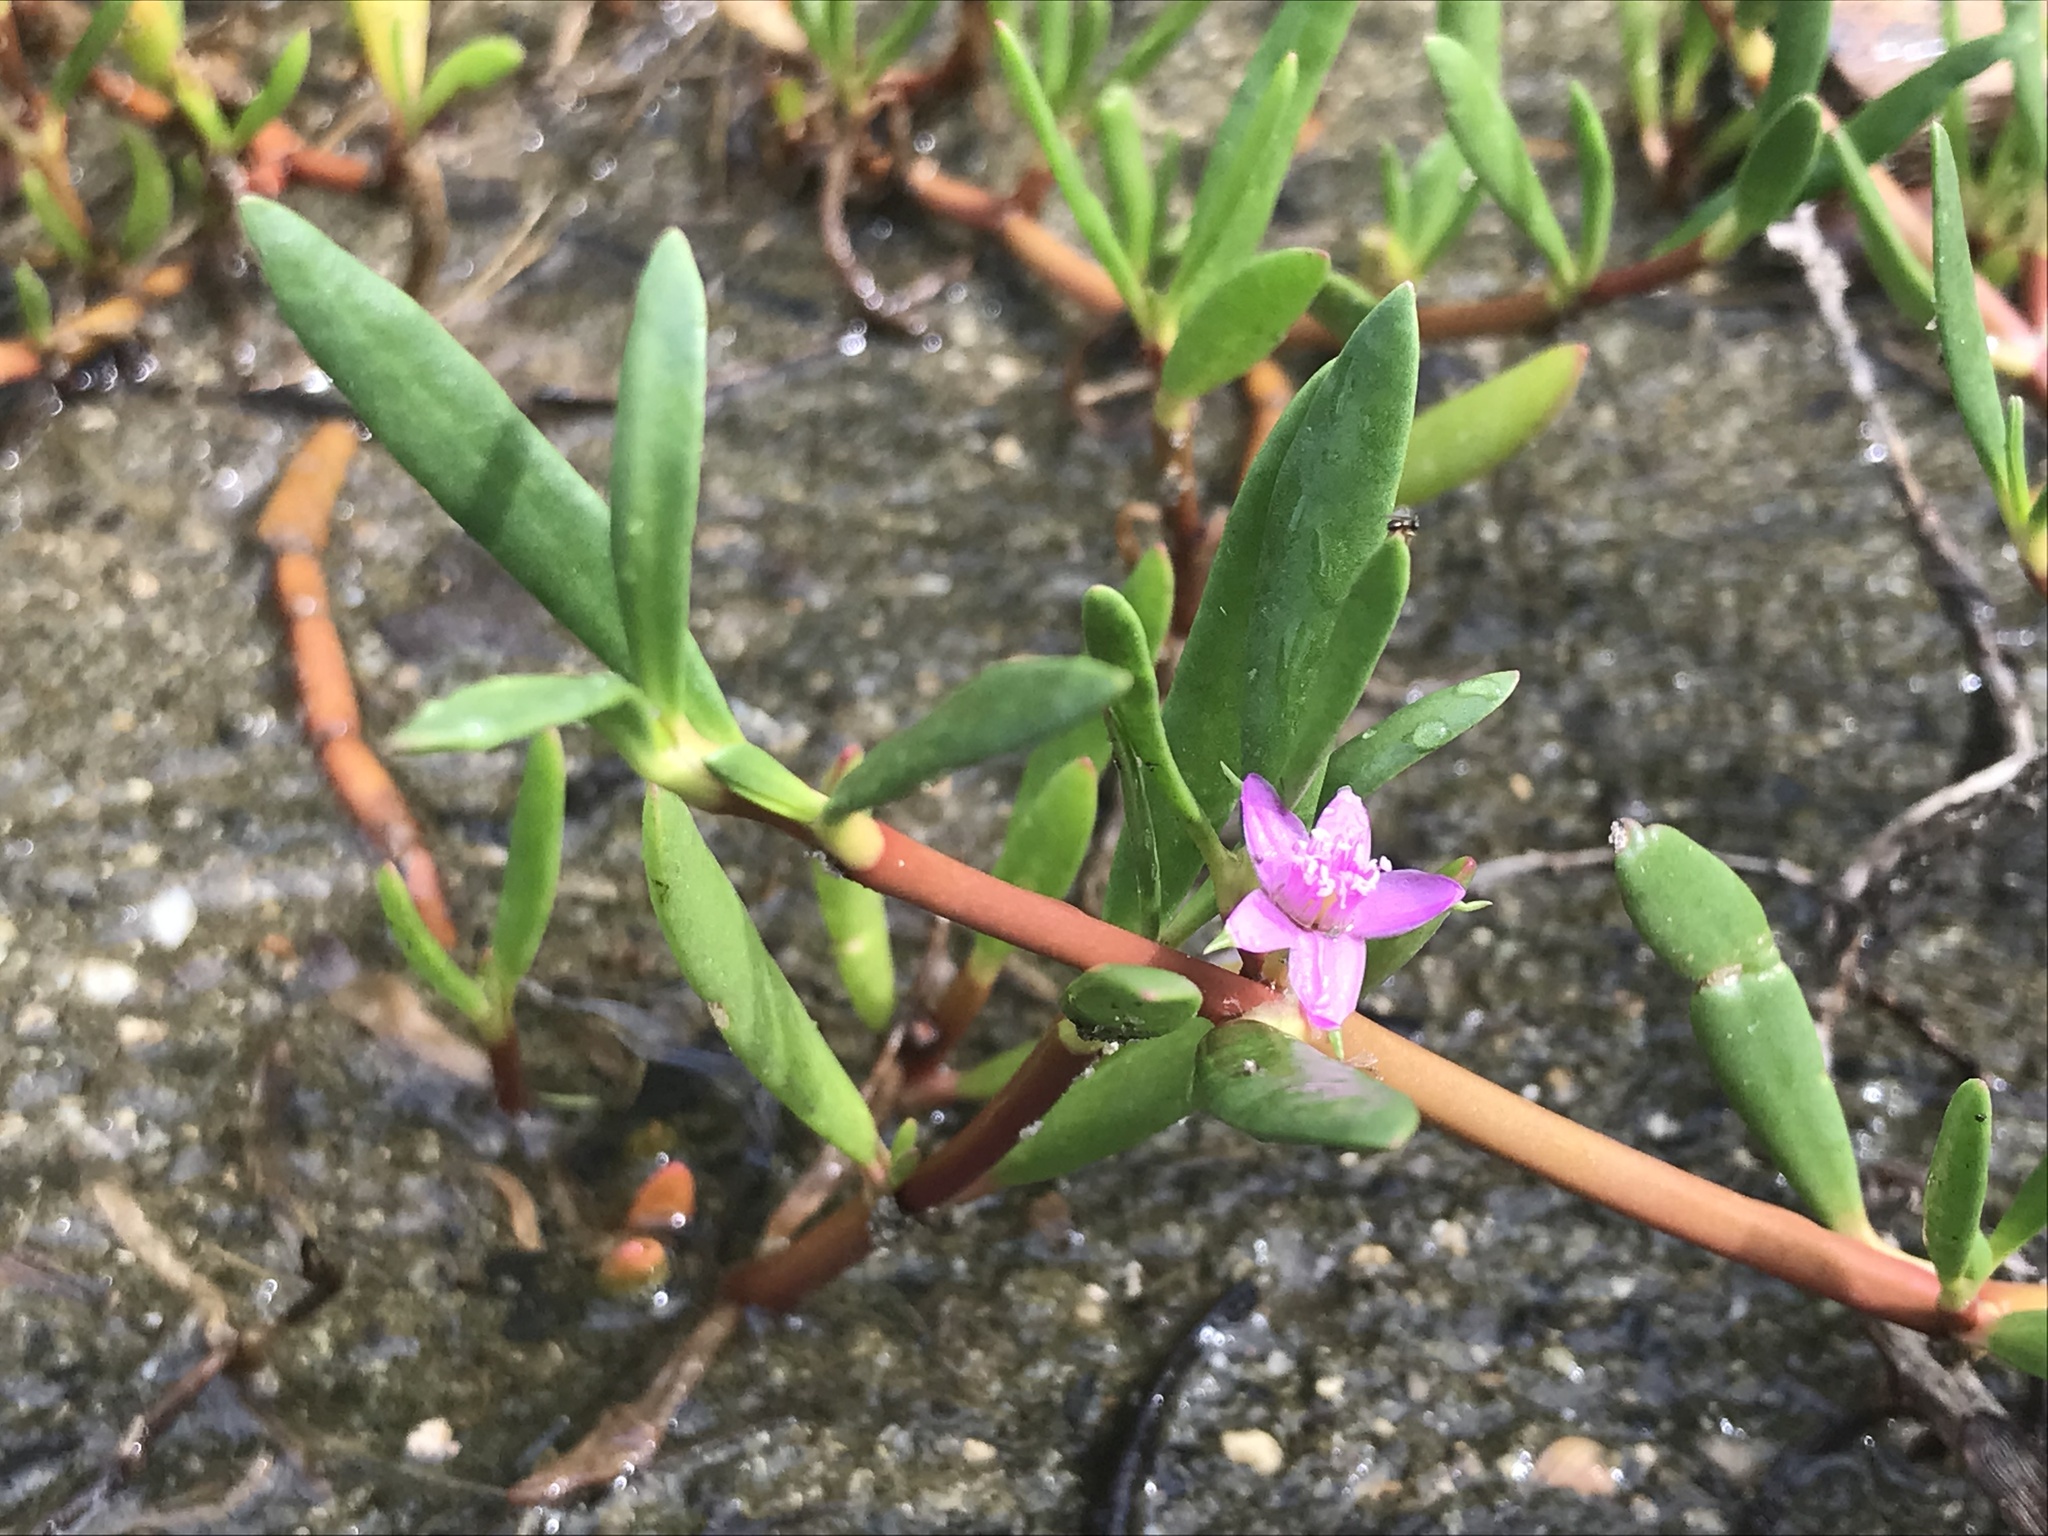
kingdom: Plantae
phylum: Tracheophyta
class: Magnoliopsida
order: Caryophyllales
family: Aizoaceae
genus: Sesuvium
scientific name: Sesuvium portulacastrum
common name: Sea-purslane
